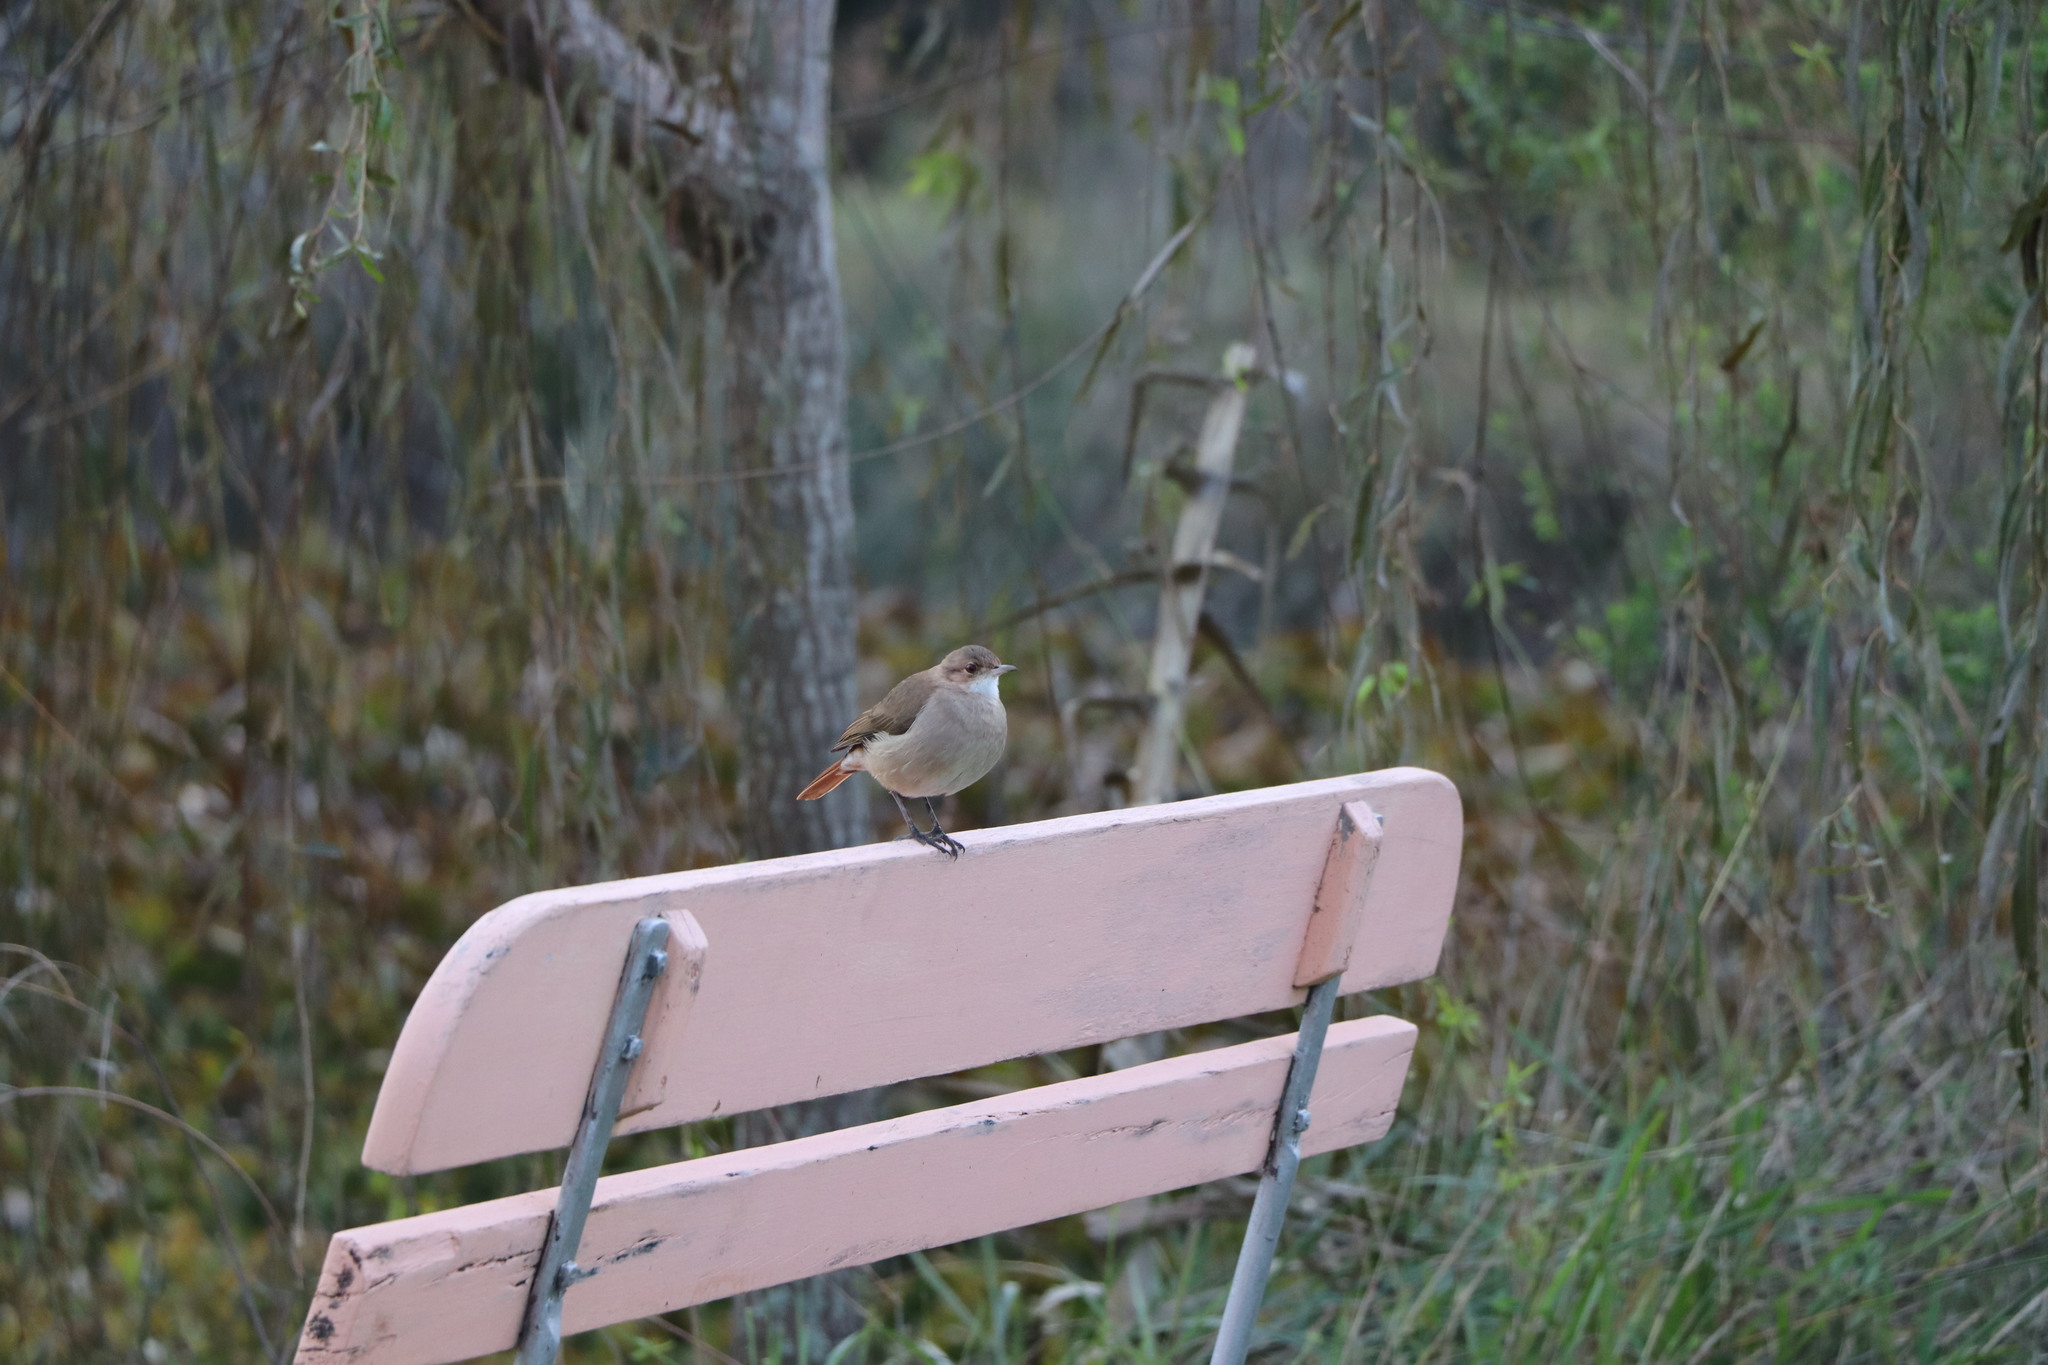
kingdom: Animalia
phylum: Chordata
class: Aves
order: Passeriformes
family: Furnariidae
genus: Furnarius
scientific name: Furnarius rufus
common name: Rufous hornero
